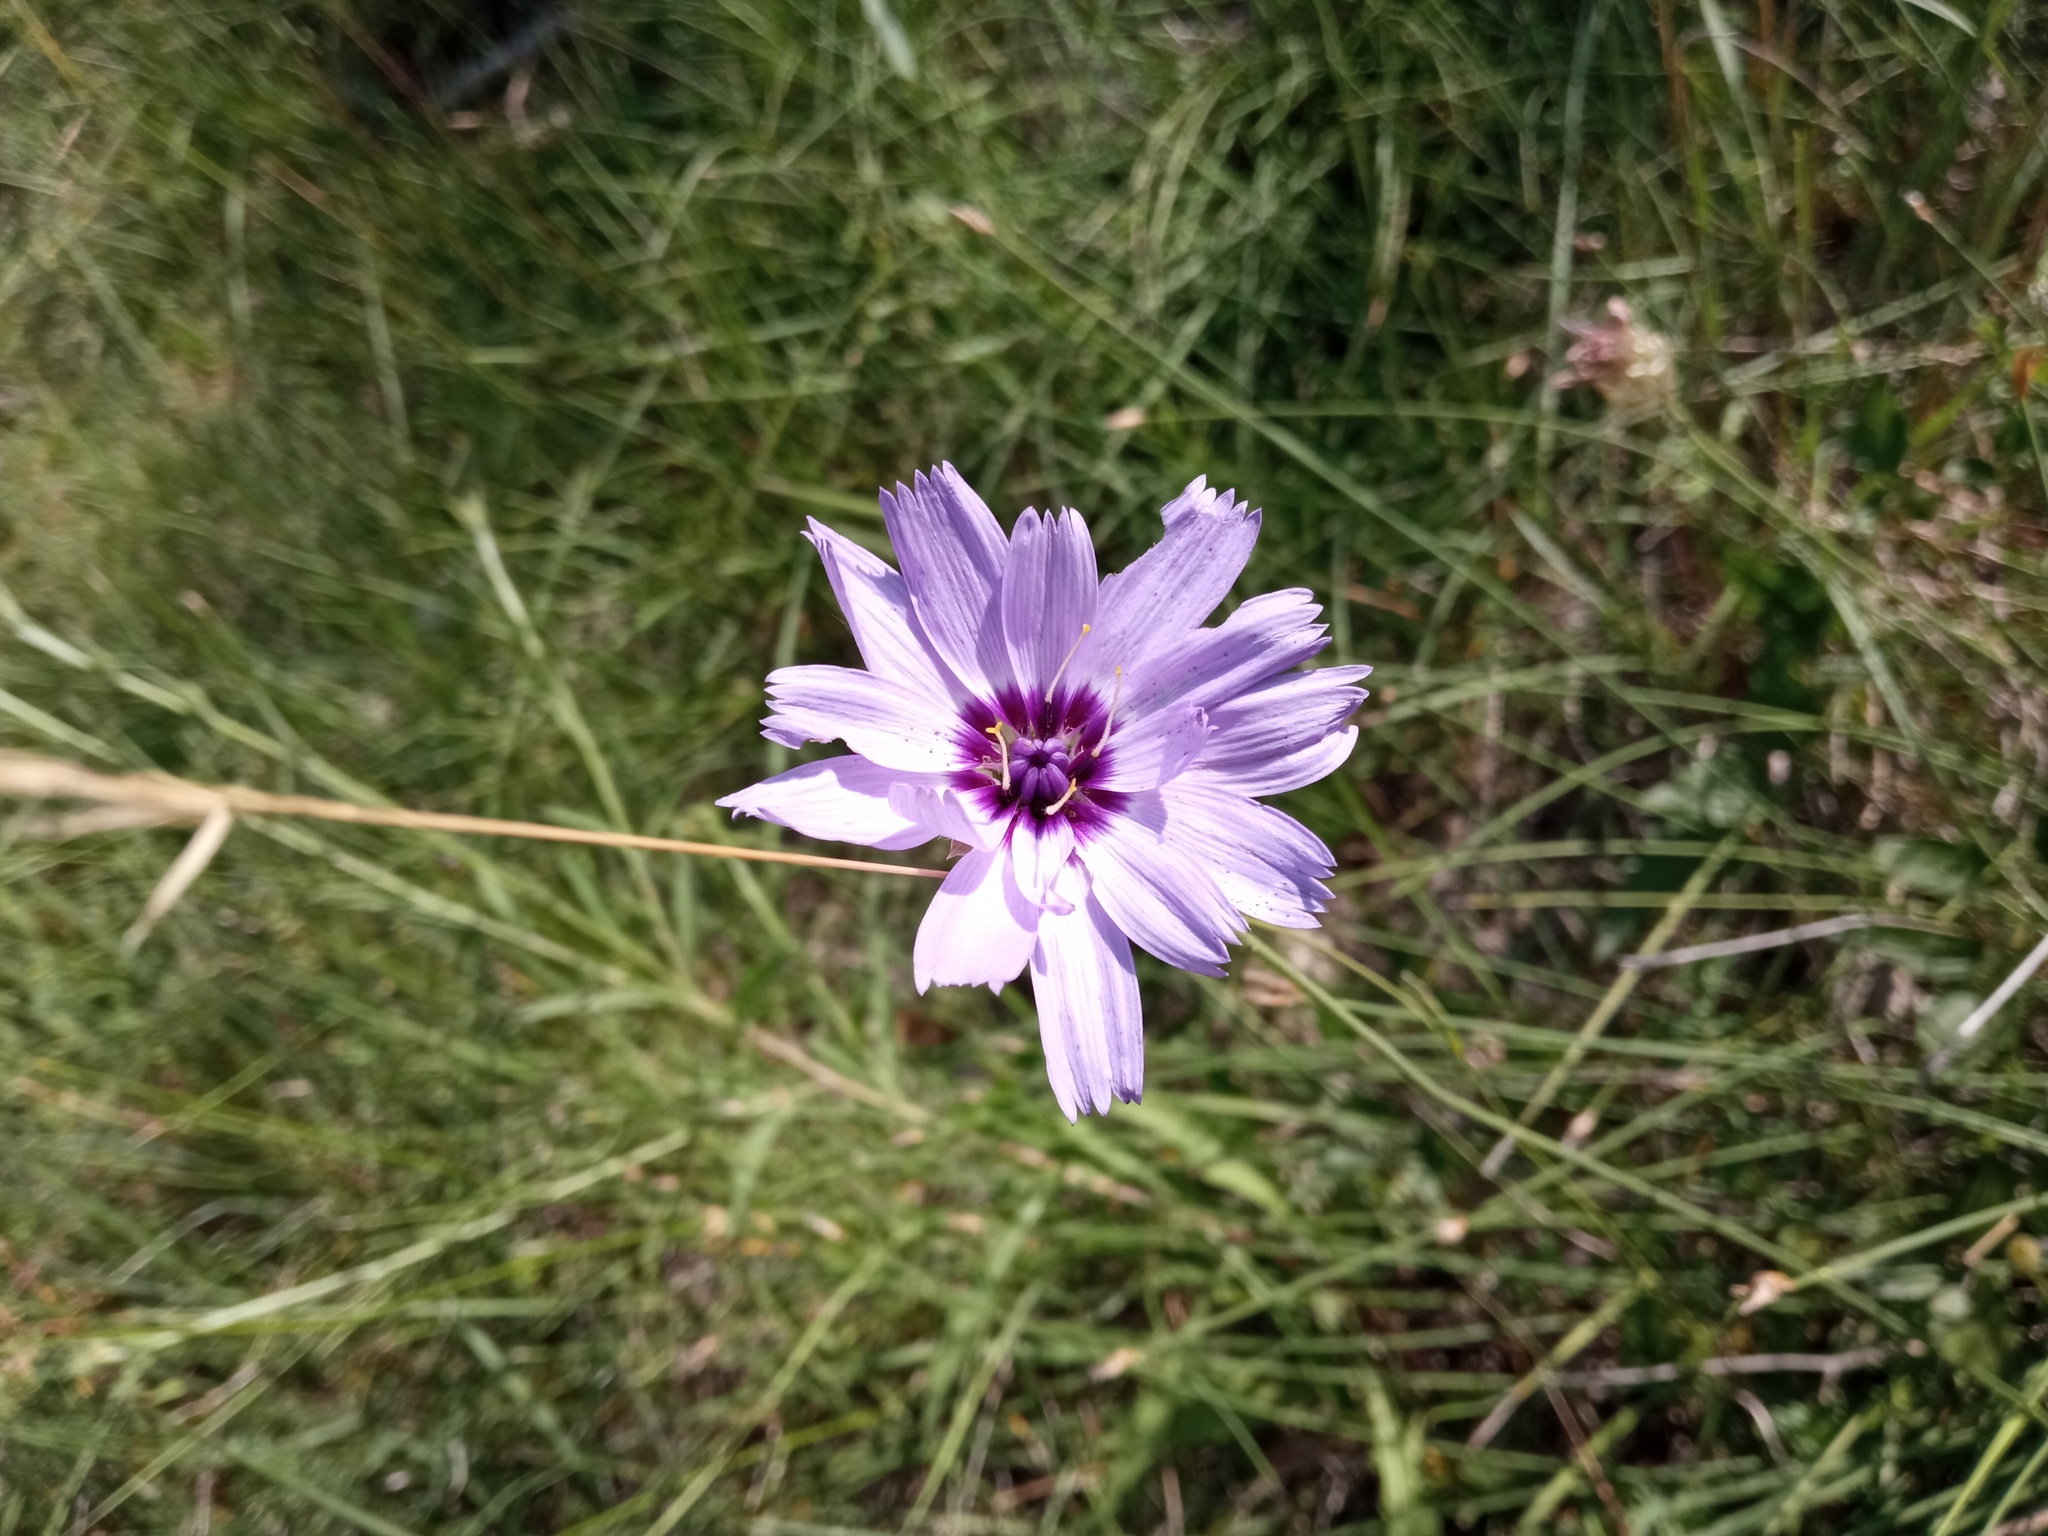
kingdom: Plantae
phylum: Tracheophyta
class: Magnoliopsida
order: Asterales
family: Asteraceae
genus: Catananche
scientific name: Catananche caerulea
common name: Blue cupidone
